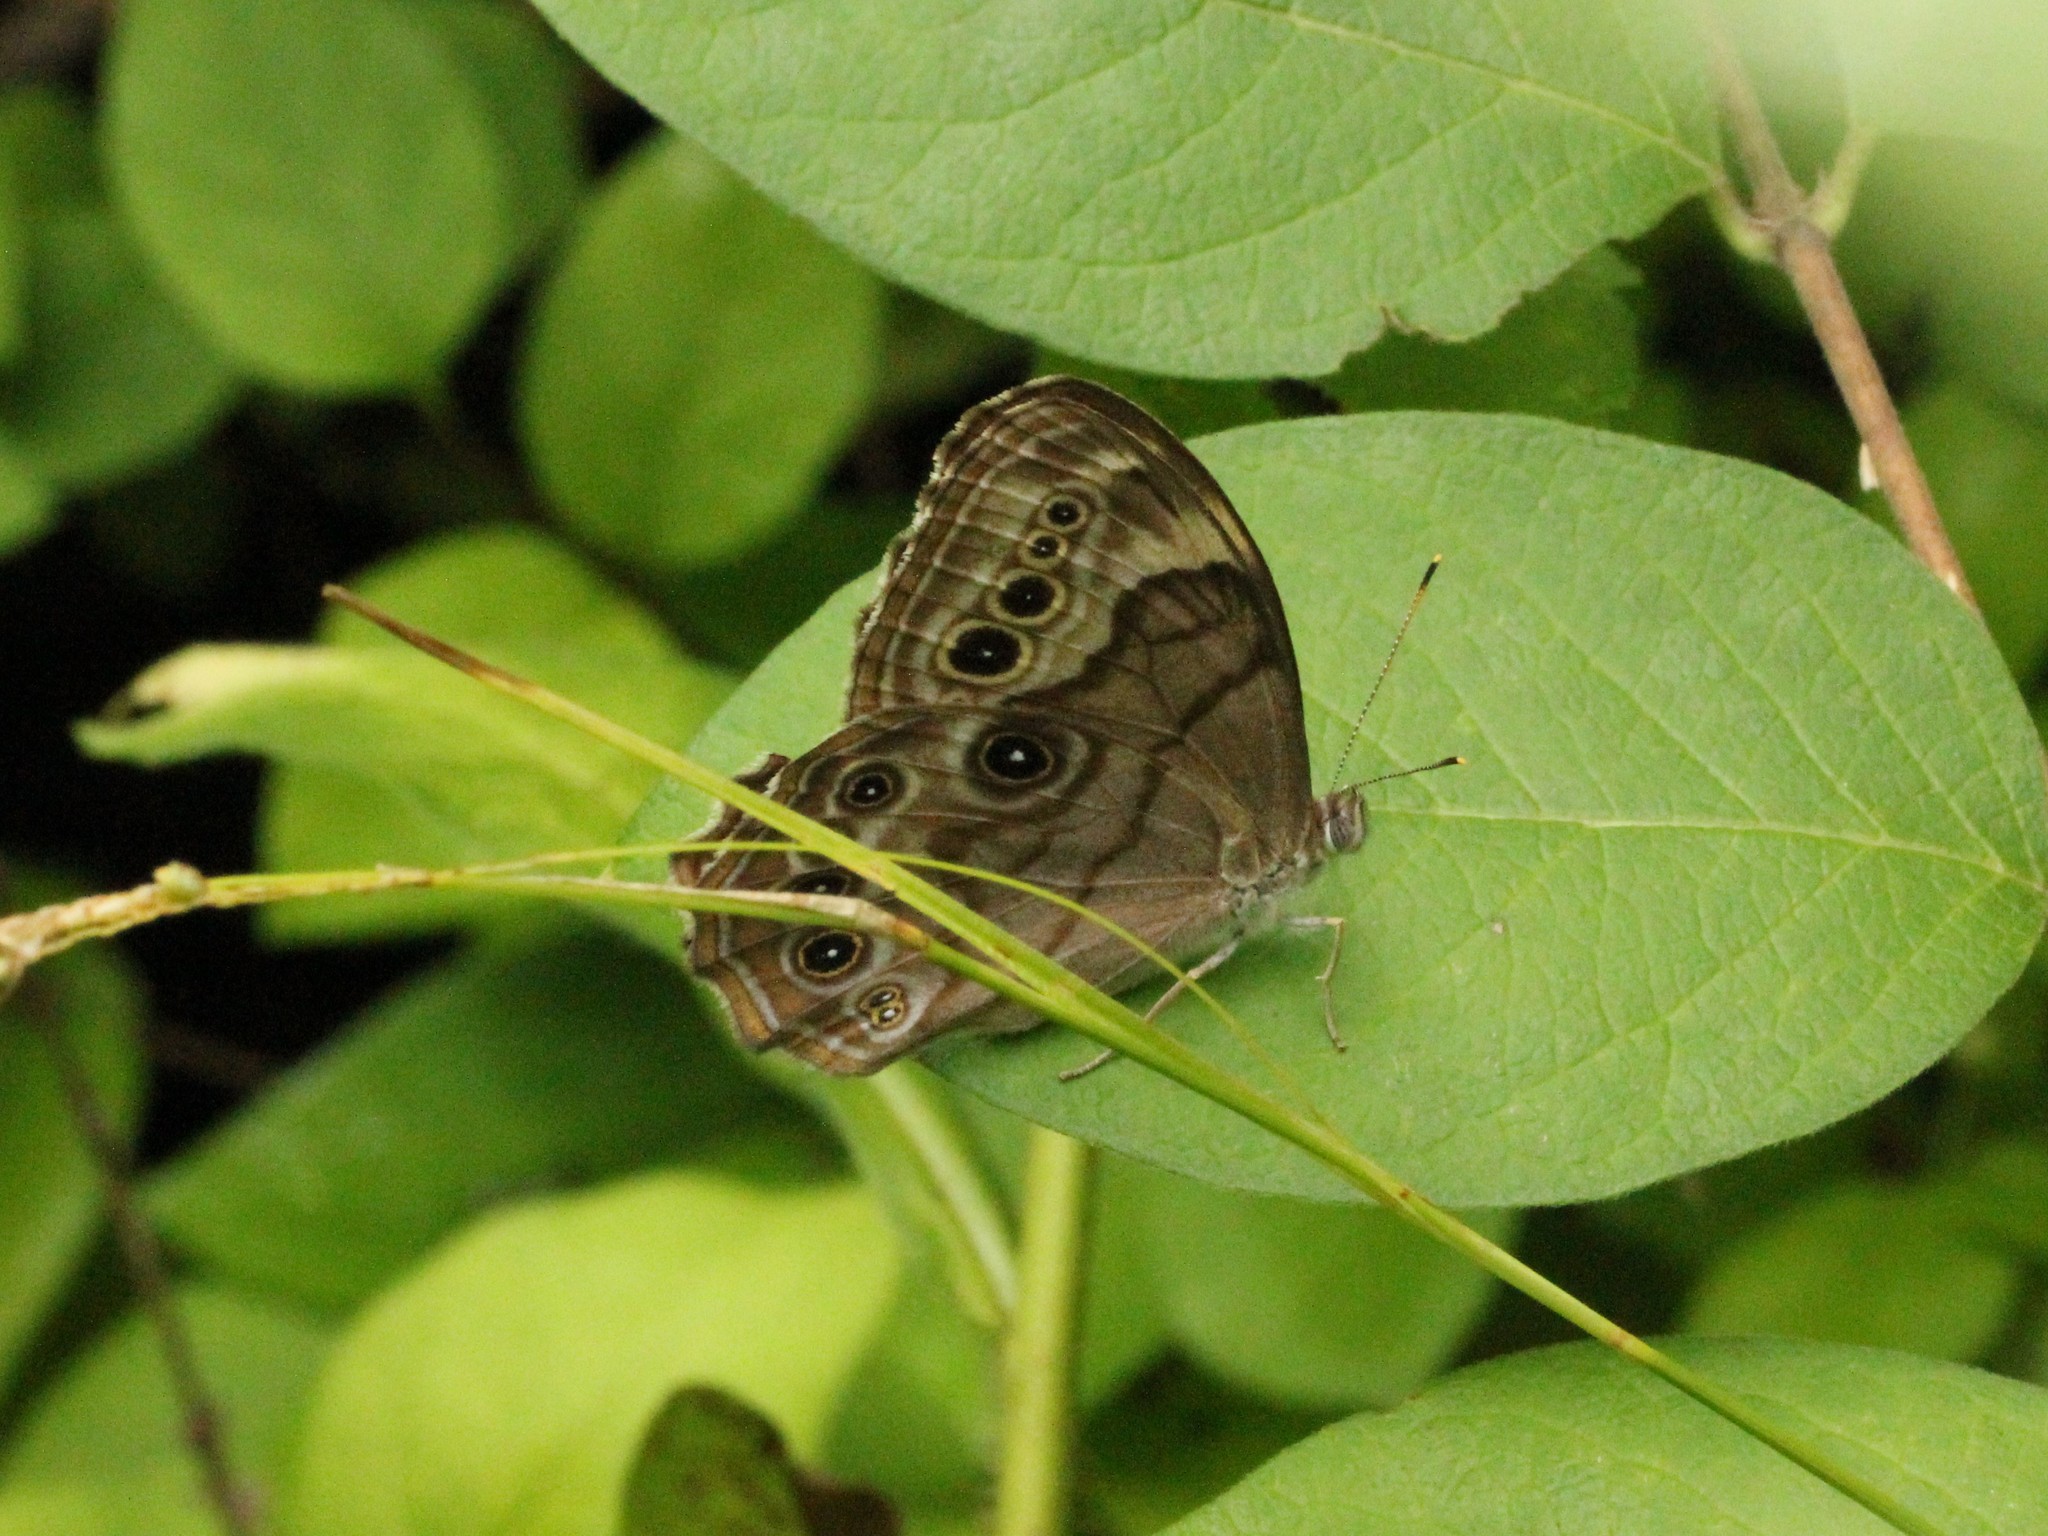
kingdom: Animalia
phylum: Arthropoda
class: Insecta
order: Lepidoptera
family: Nymphalidae
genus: Lethe
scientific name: Lethe anthedon
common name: Northern pearly-eye
